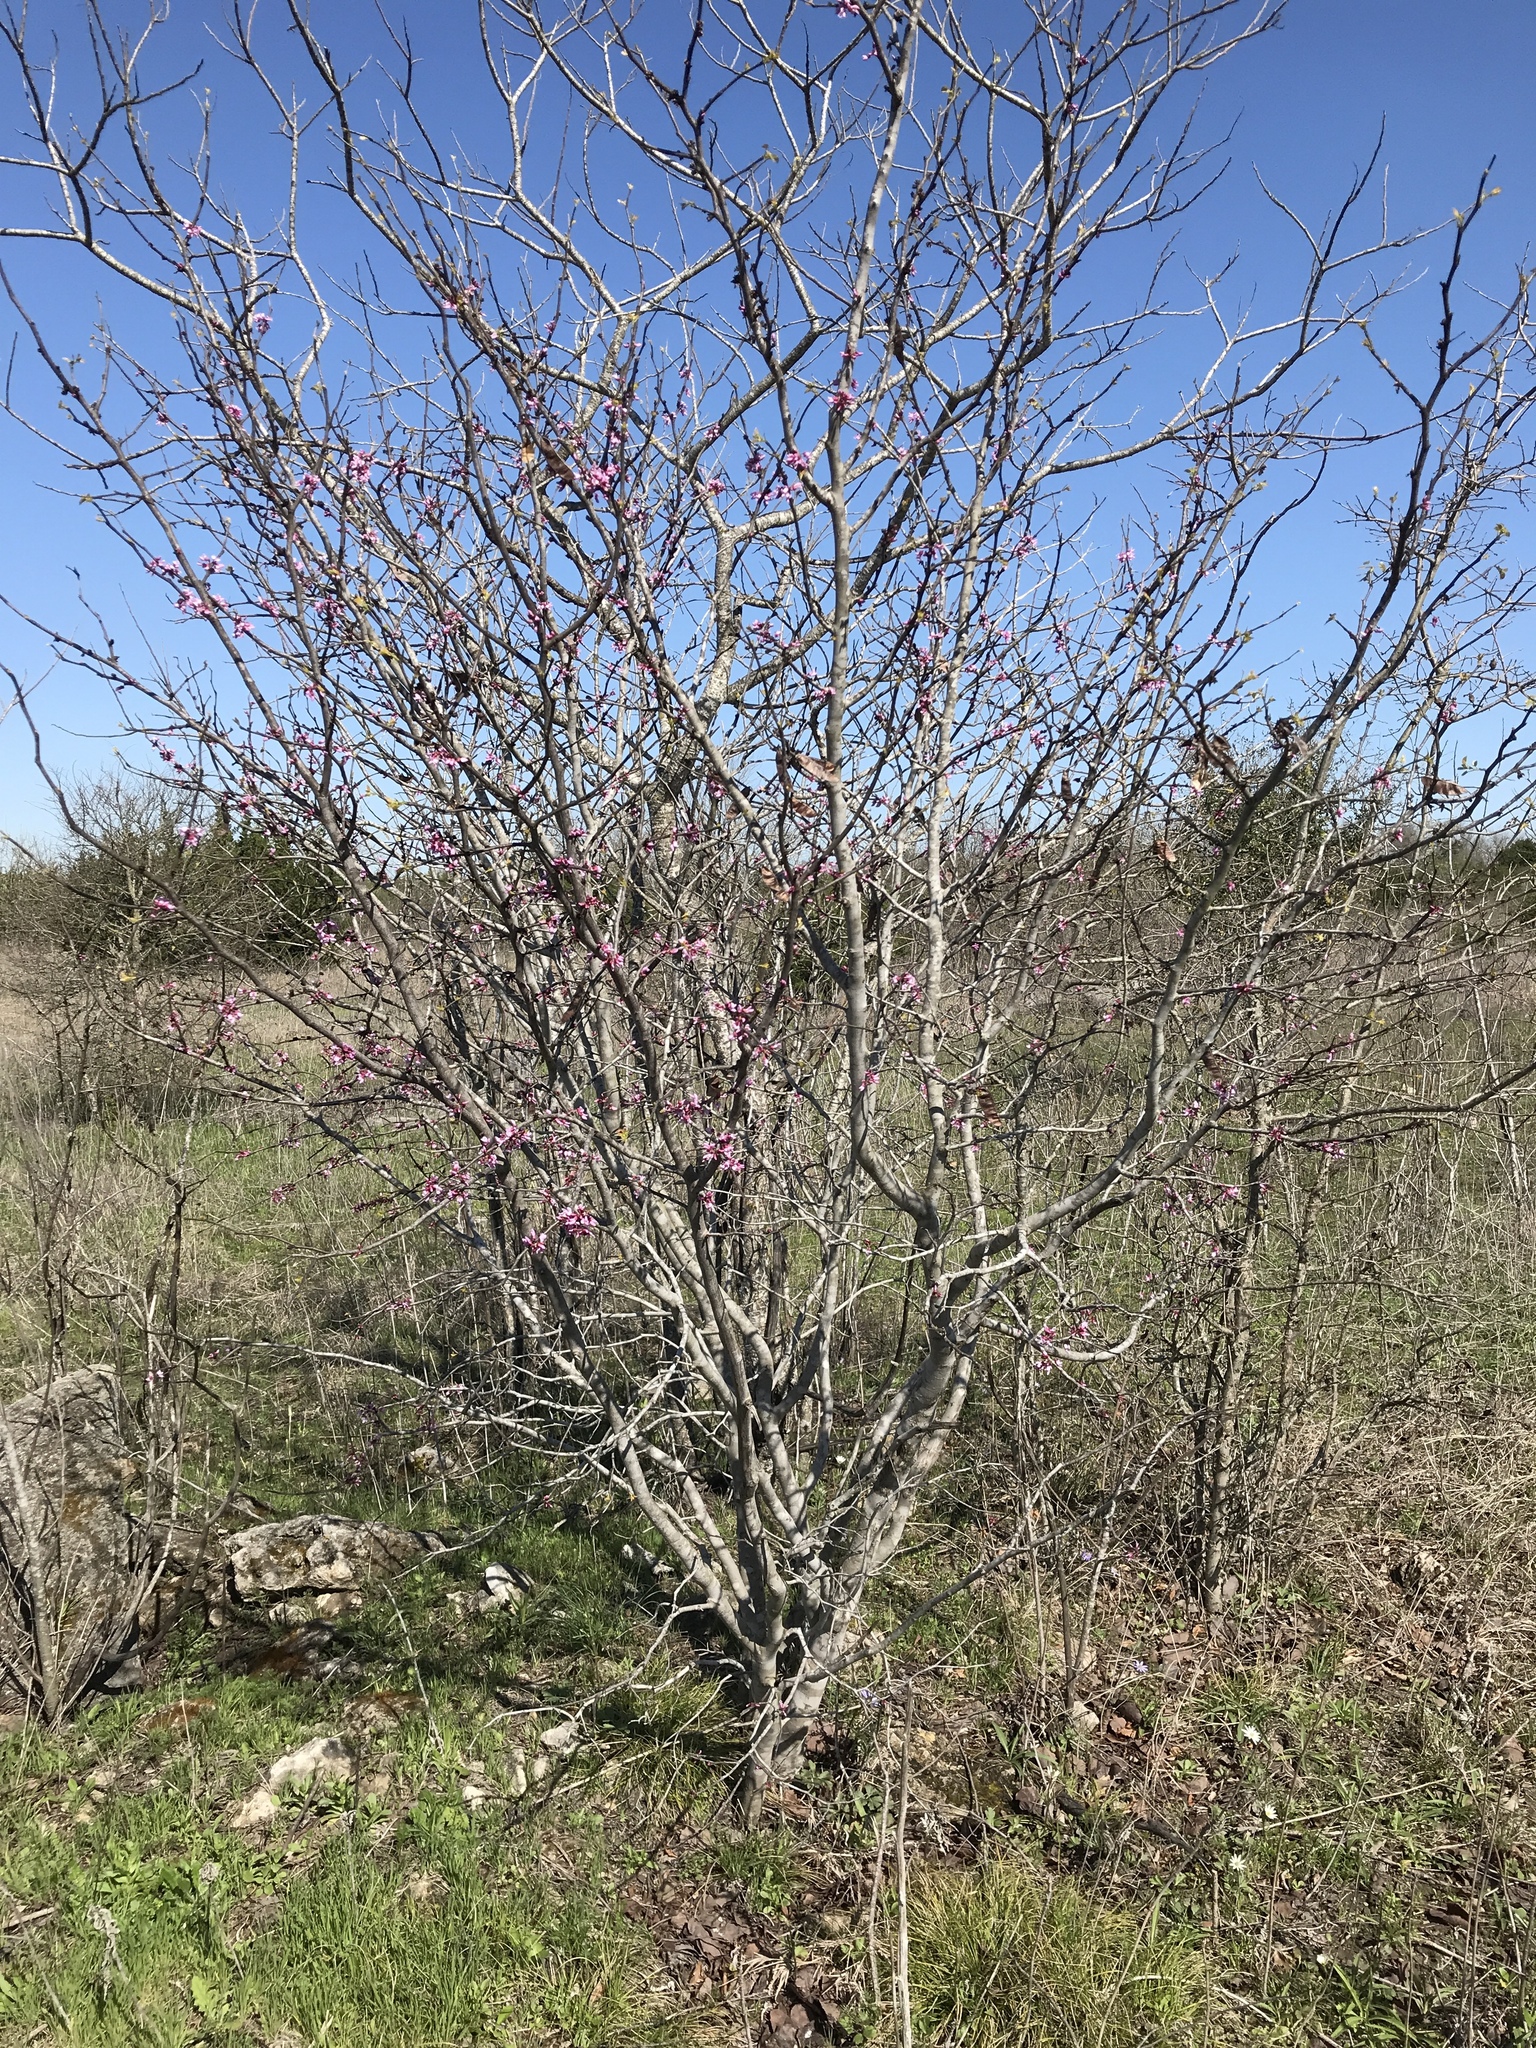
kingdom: Plantae
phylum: Tracheophyta
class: Magnoliopsida
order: Fabales
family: Fabaceae
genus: Cercis
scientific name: Cercis canadensis
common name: Eastern redbud
